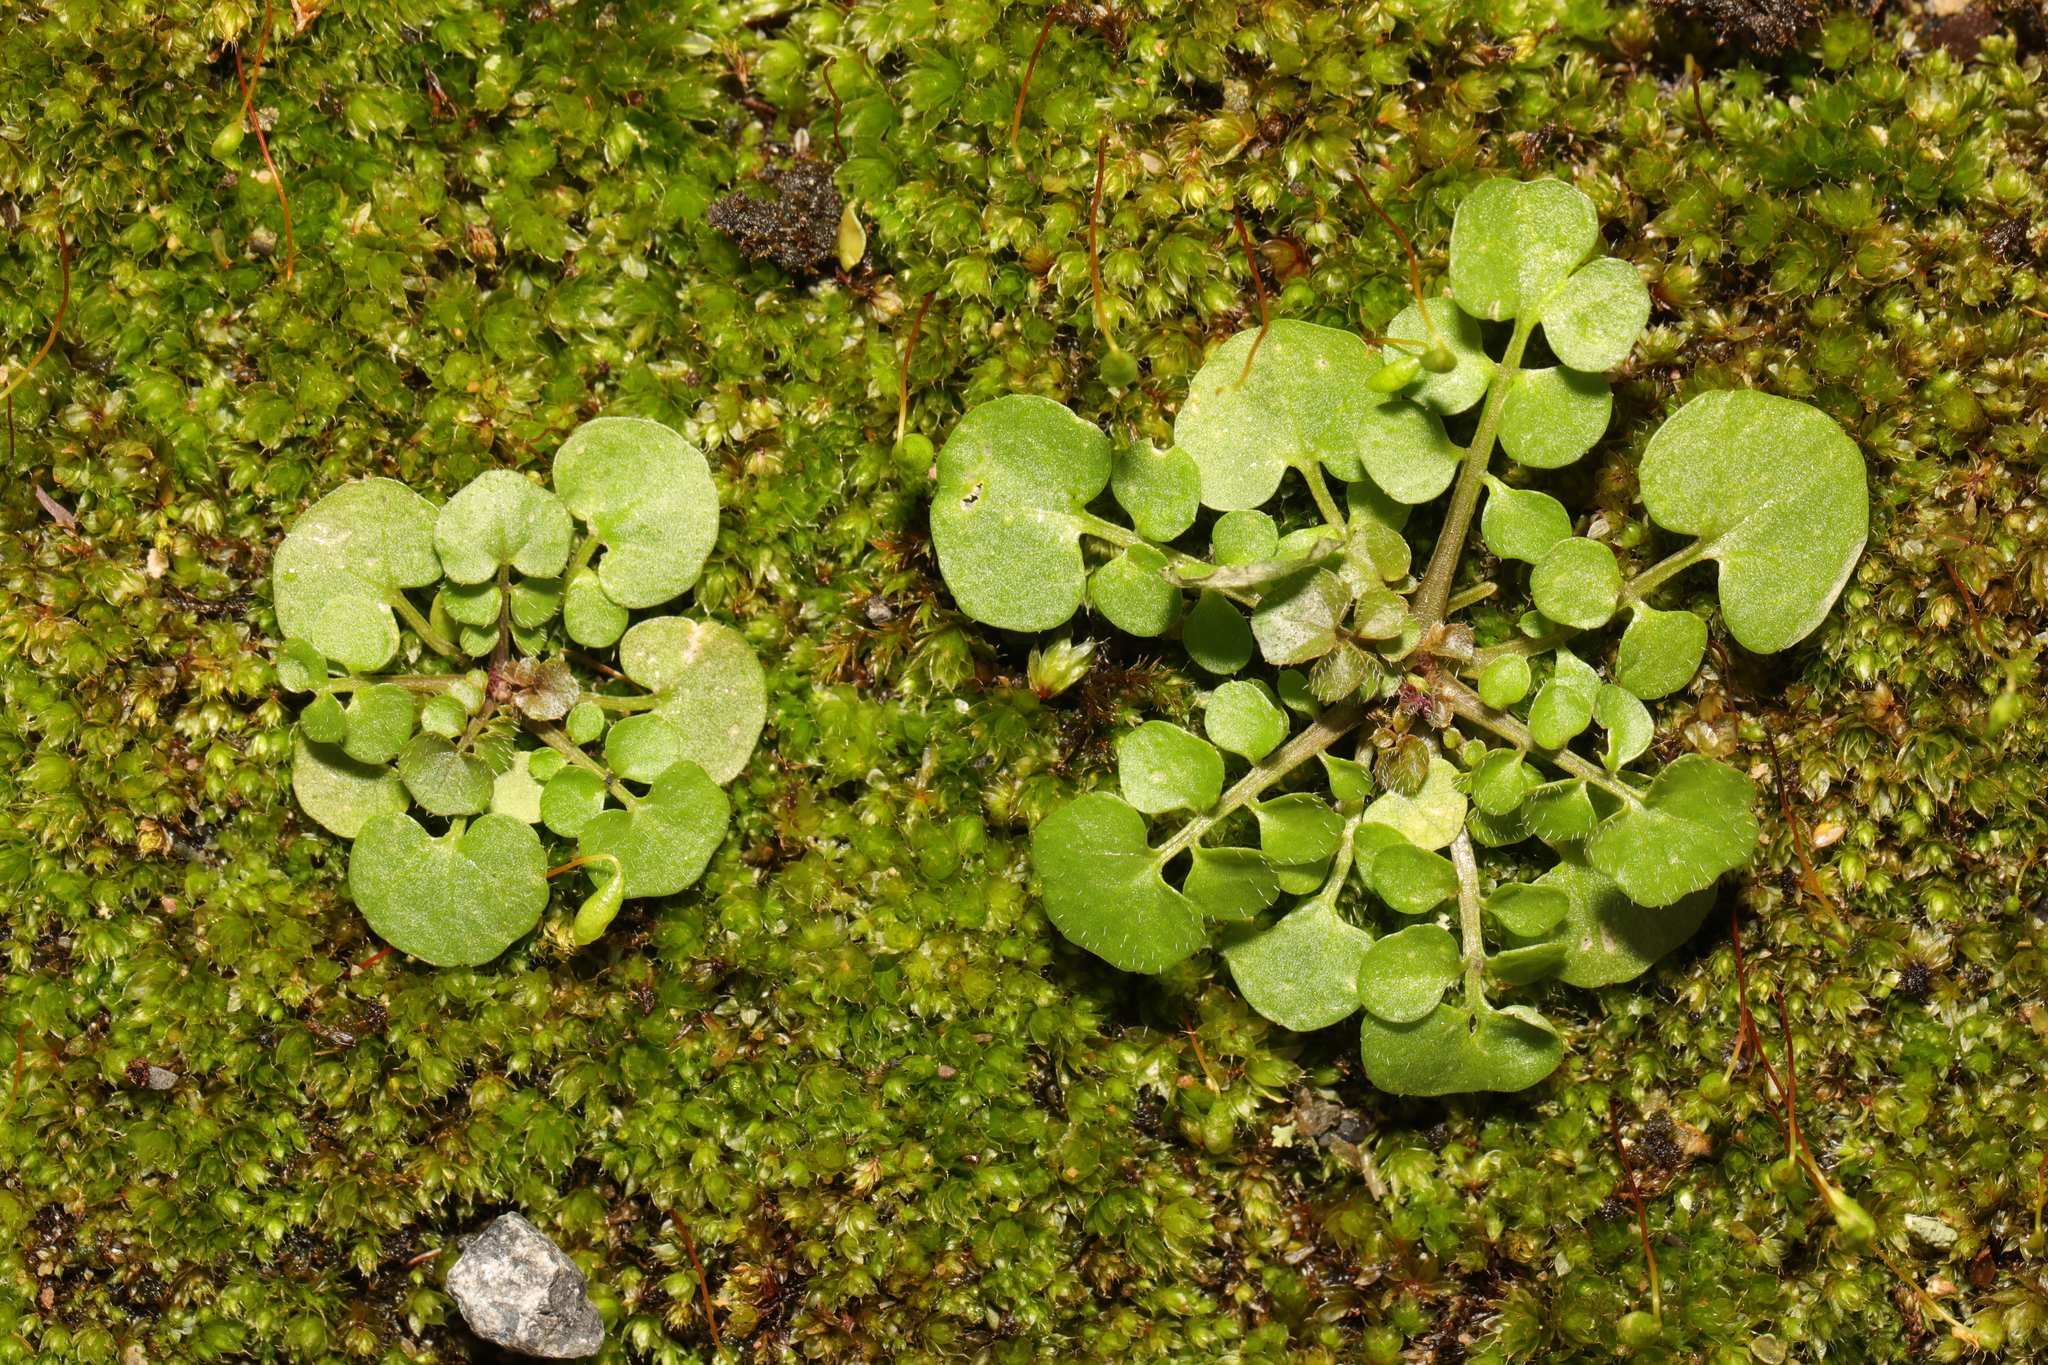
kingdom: Plantae
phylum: Tracheophyta
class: Magnoliopsida
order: Brassicales
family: Brassicaceae
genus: Cardamine
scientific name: Cardamine hirsuta
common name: Hairy bittercress
